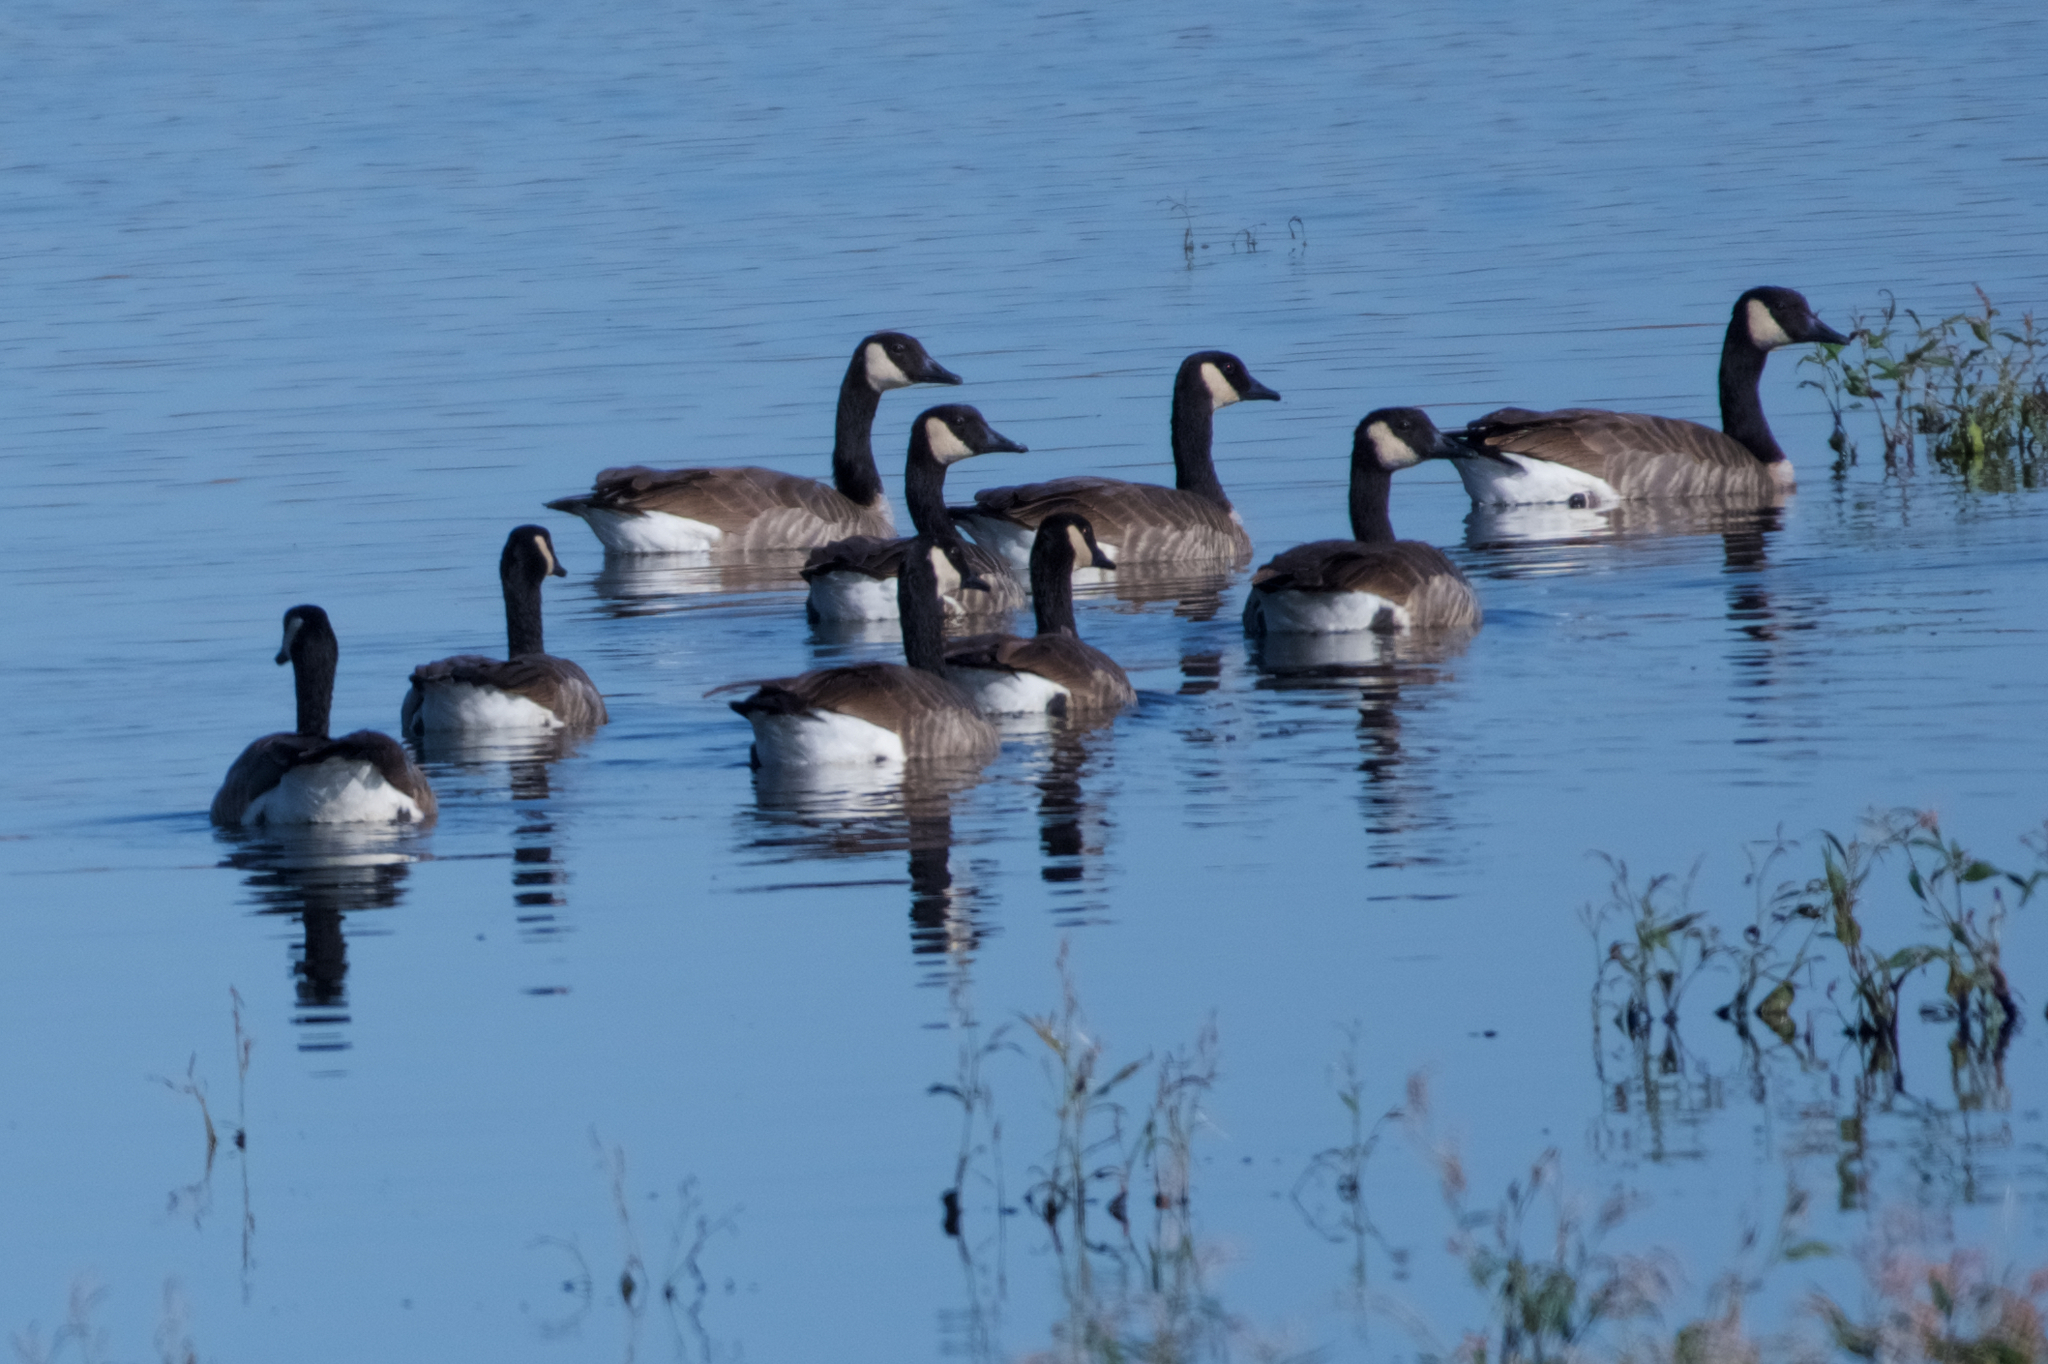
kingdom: Animalia
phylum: Chordata
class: Aves
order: Anseriformes
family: Anatidae
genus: Branta
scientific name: Branta canadensis
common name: Canada goose
